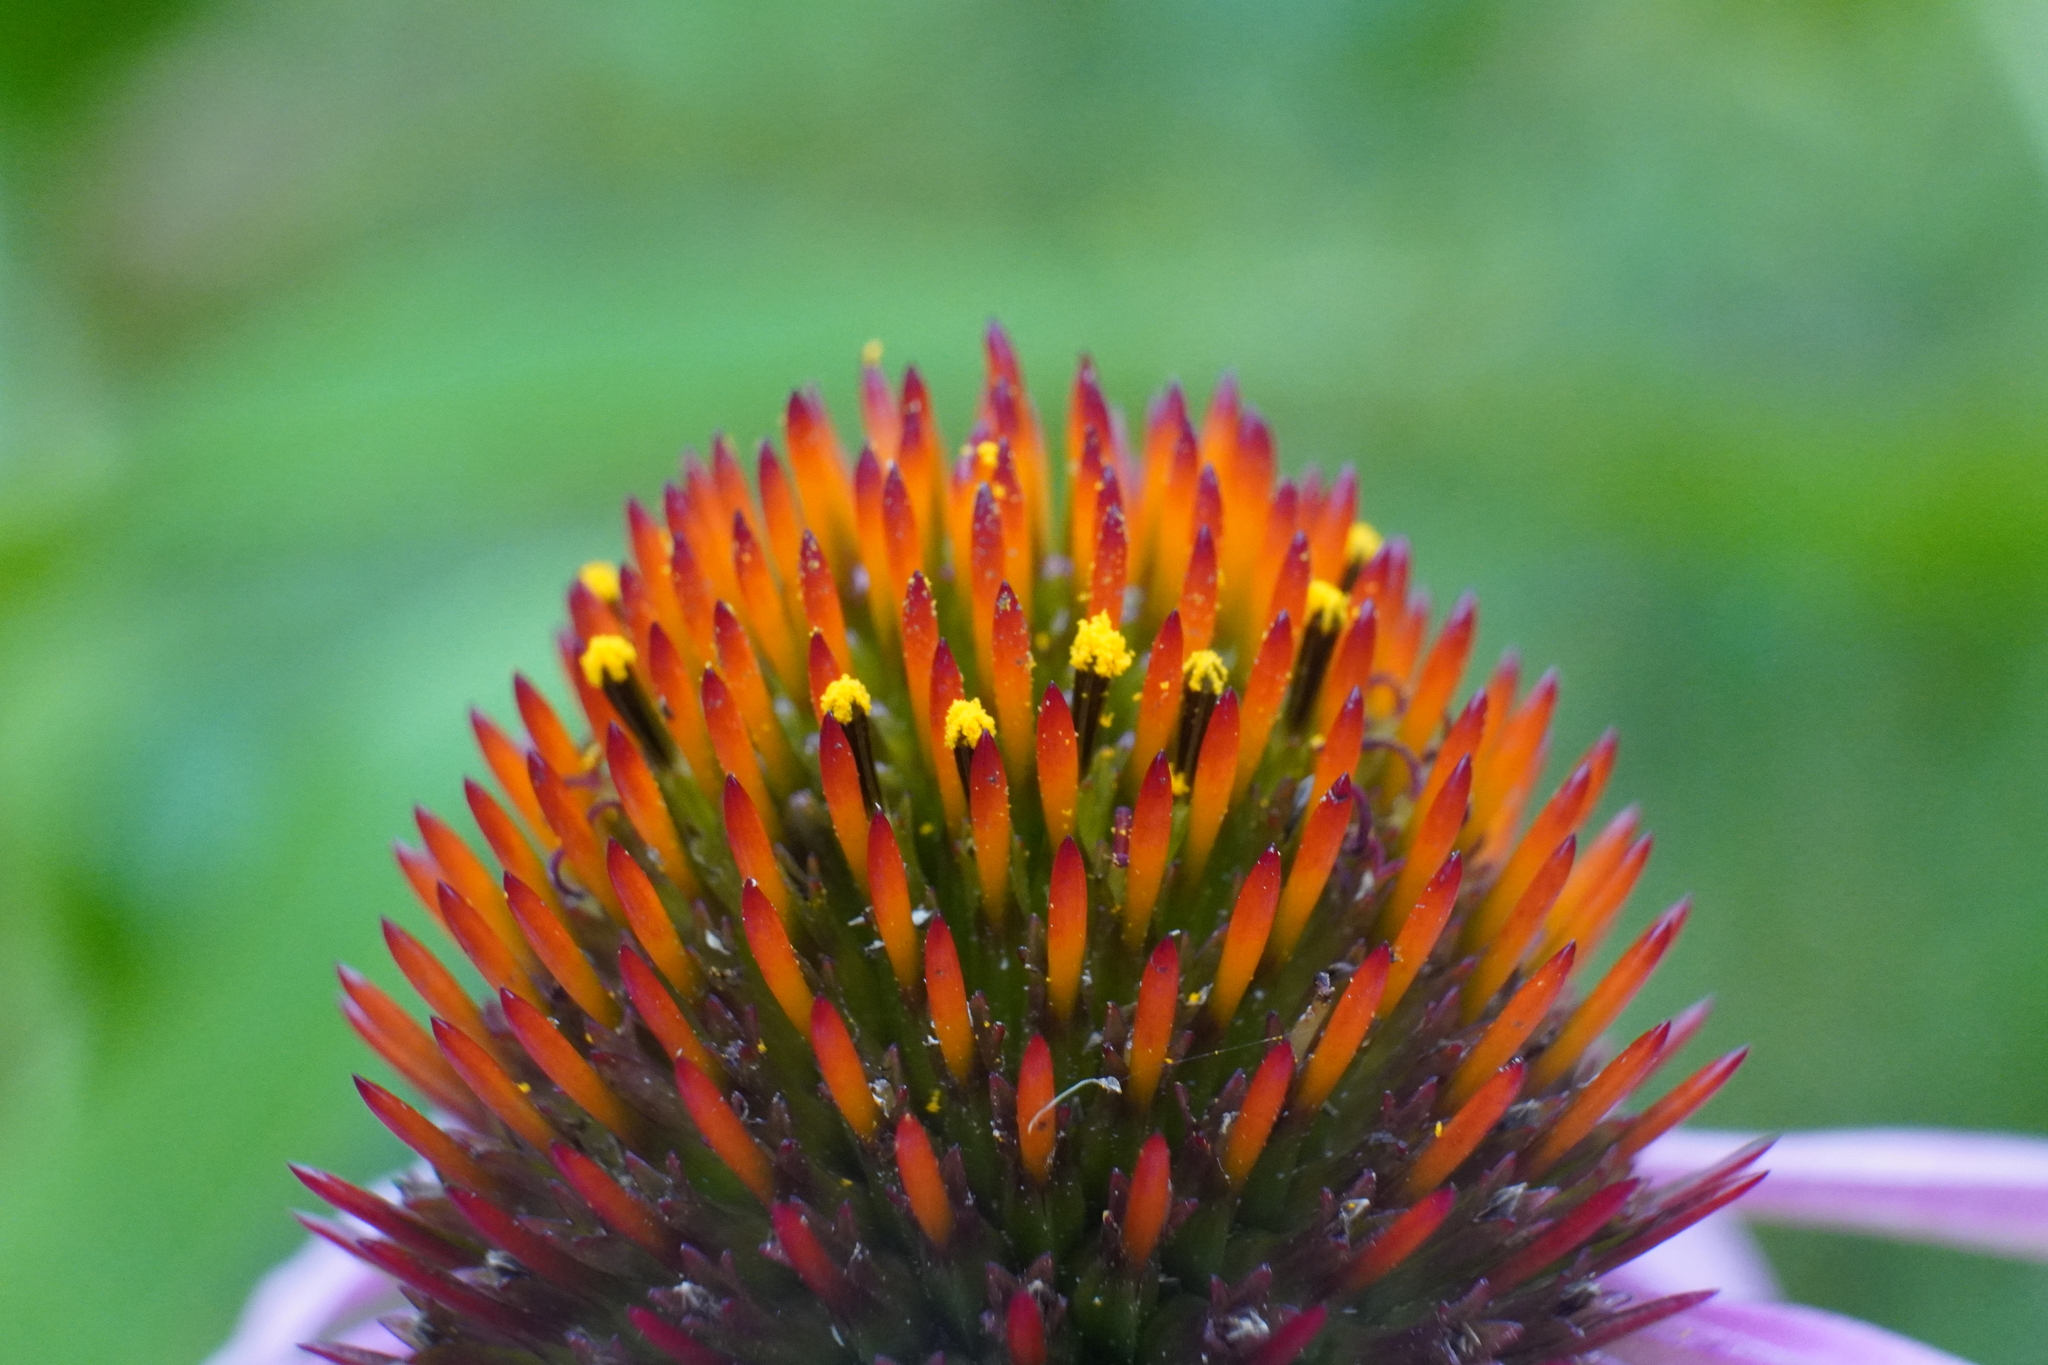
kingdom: Plantae
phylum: Tracheophyta
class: Magnoliopsida
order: Asterales
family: Asteraceae
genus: Echinacea
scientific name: Echinacea purpurea
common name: Broad-leaved purple coneflower
